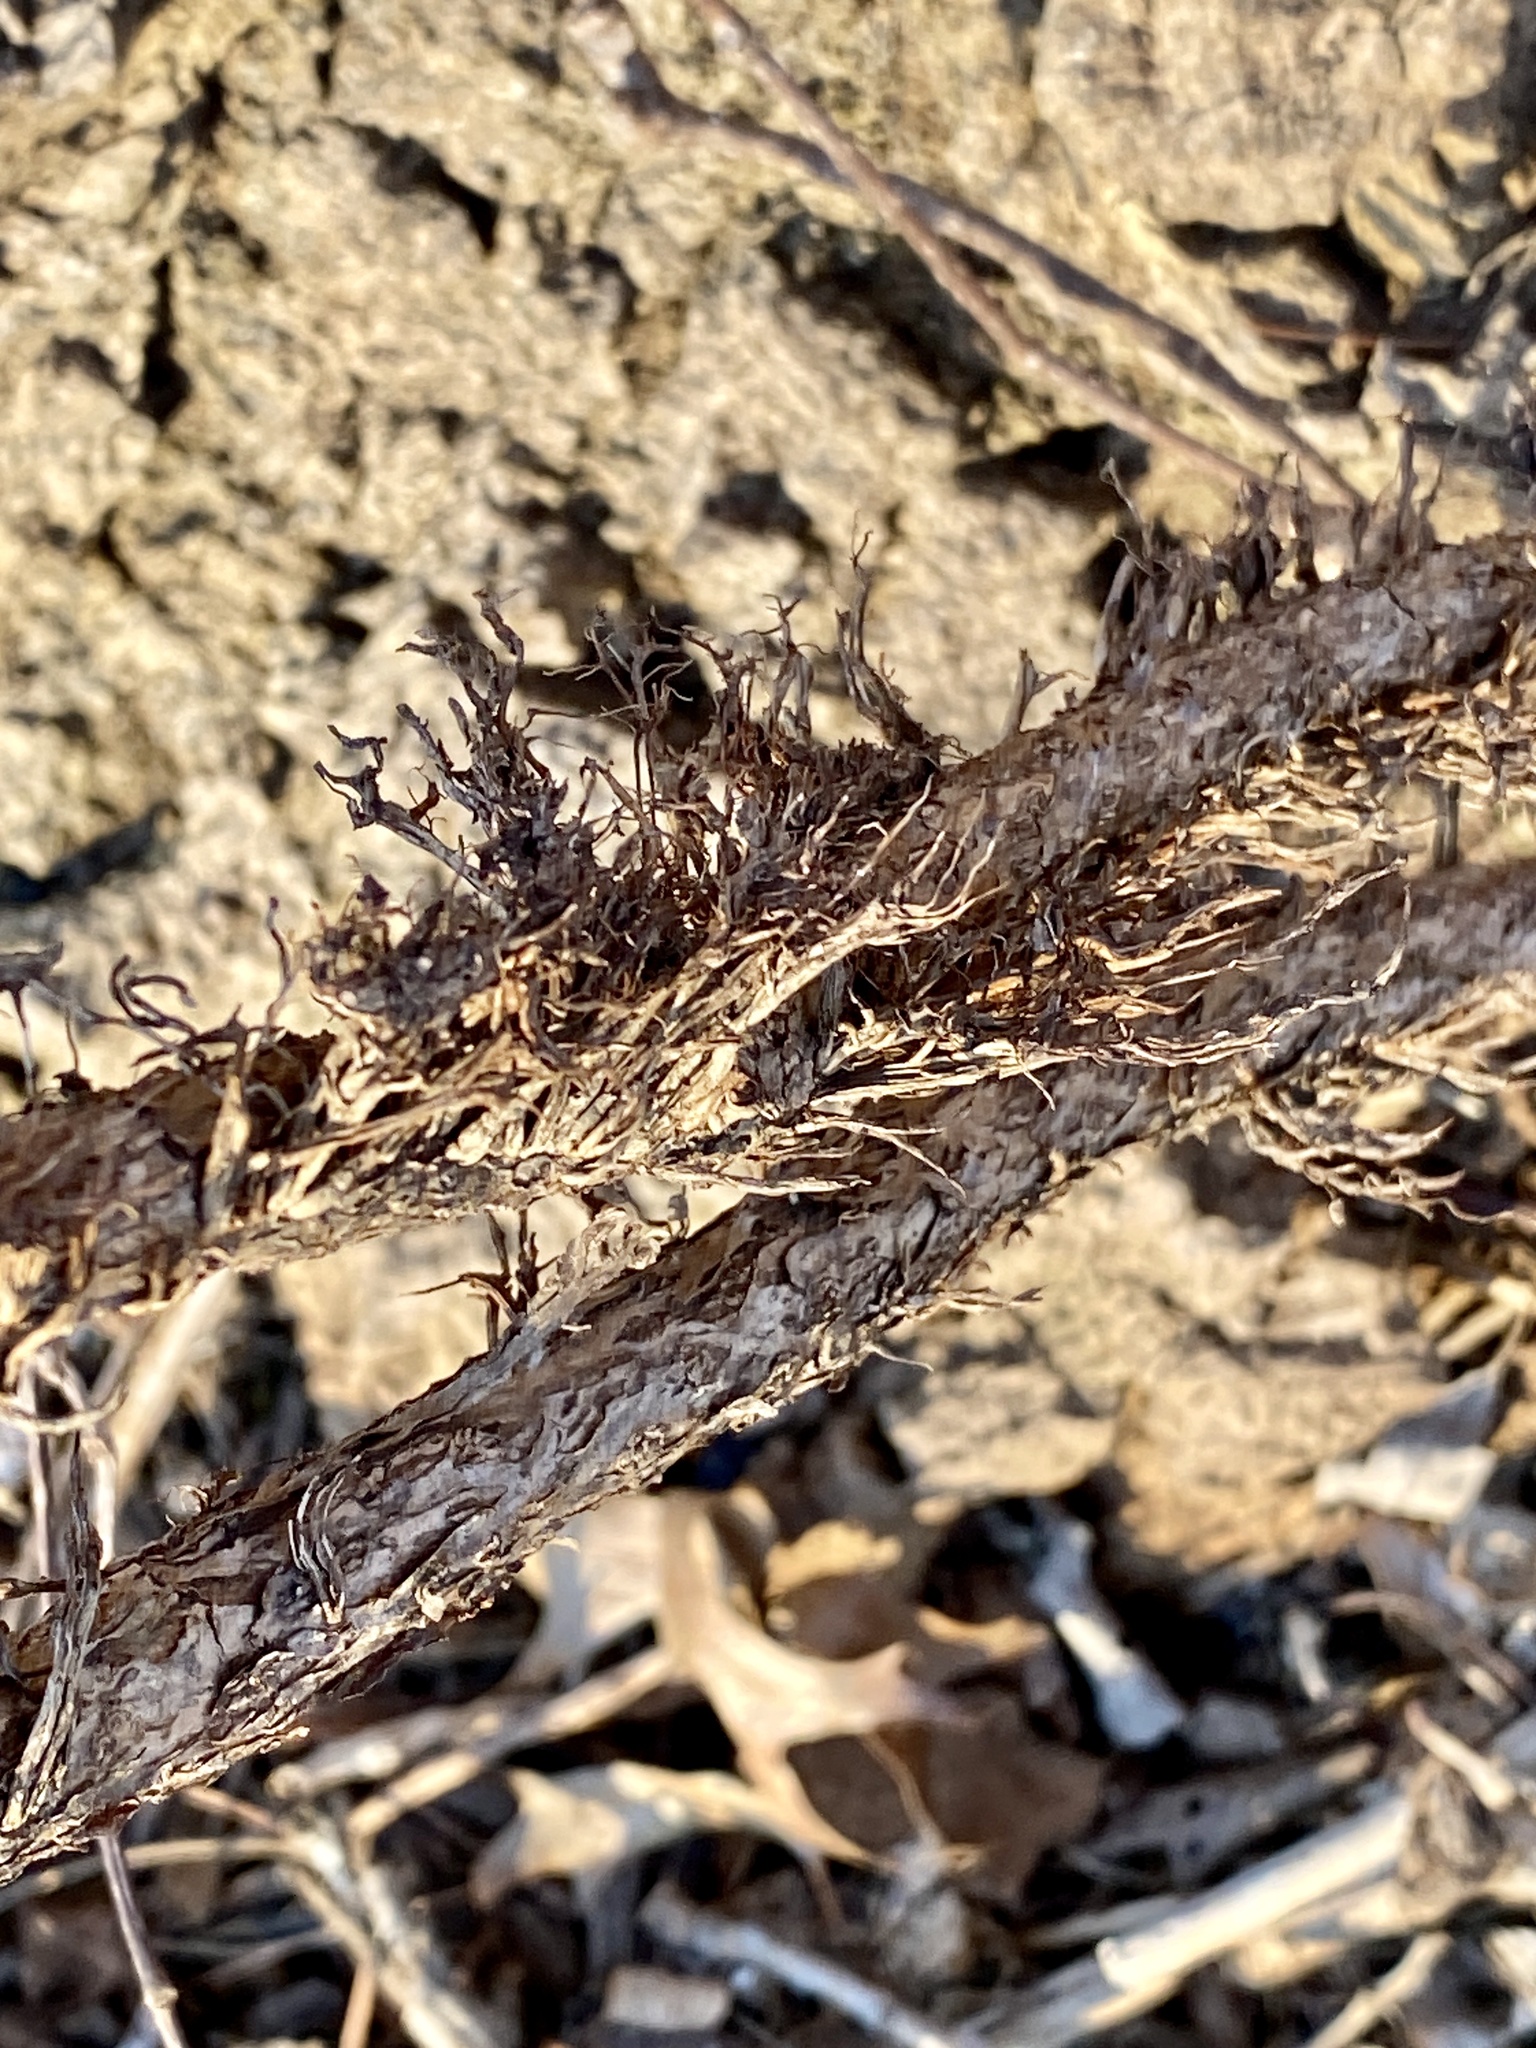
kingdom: Plantae
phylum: Tracheophyta
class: Magnoliopsida
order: Sapindales
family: Anacardiaceae
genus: Toxicodendron
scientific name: Toxicodendron radicans
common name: Poison ivy
